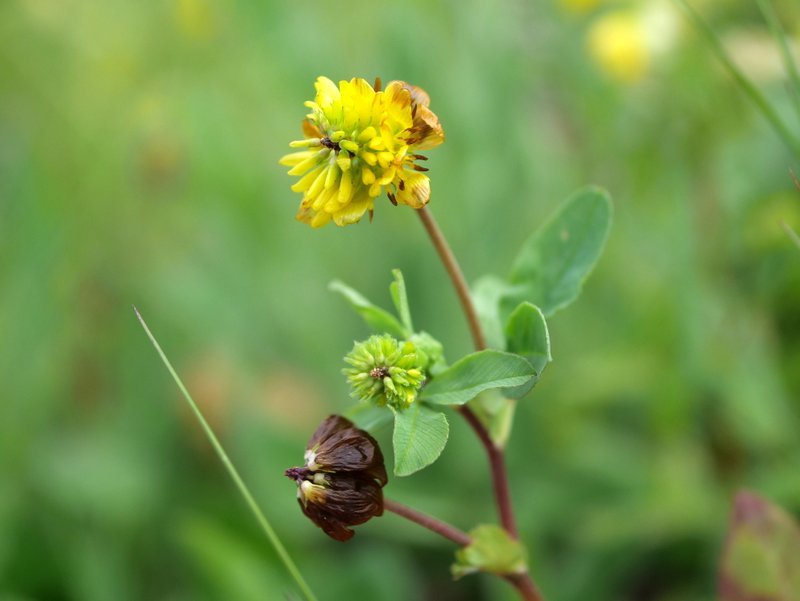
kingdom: Plantae
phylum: Tracheophyta
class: Magnoliopsida
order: Fabales
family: Fabaceae
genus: Trifolium
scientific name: Trifolium badium
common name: Brown clover
